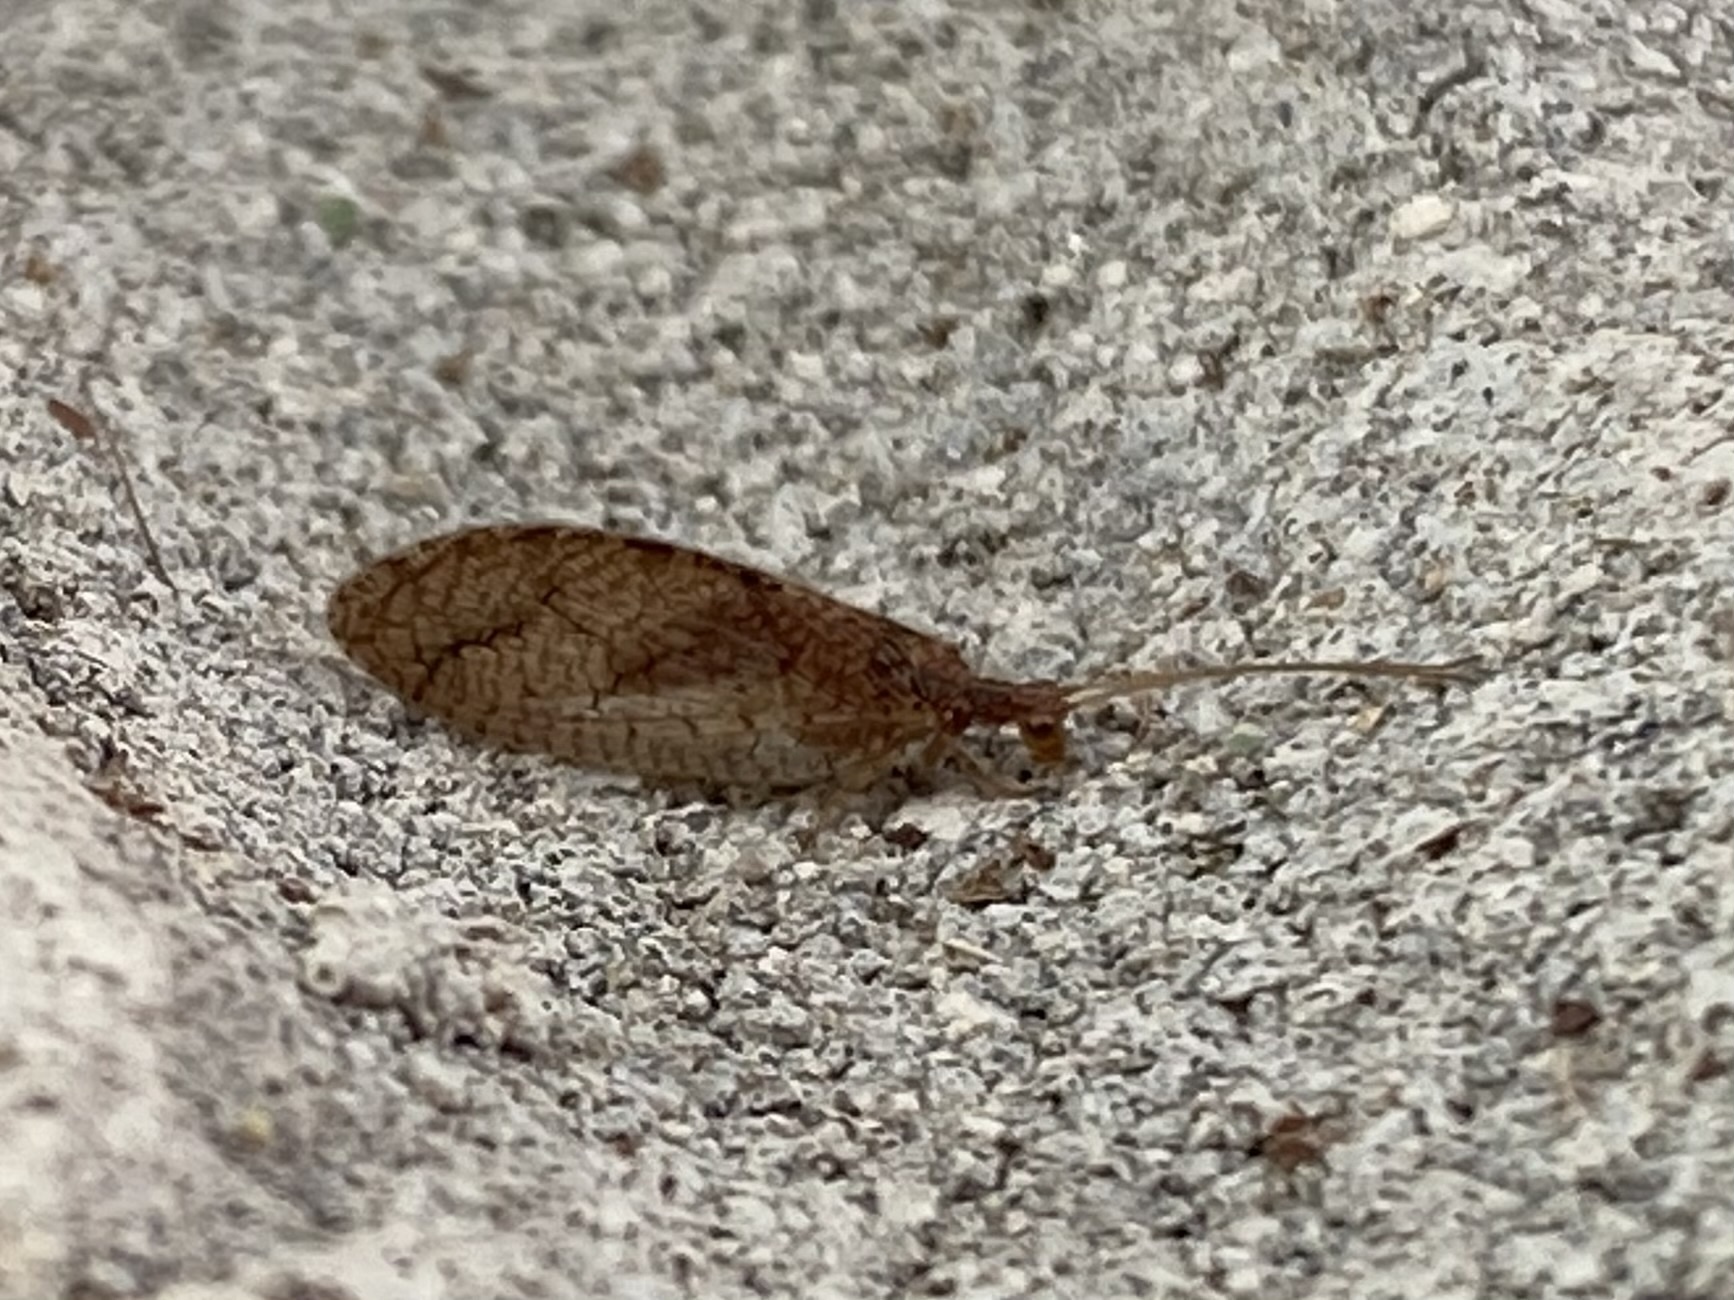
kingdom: Animalia
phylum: Arthropoda
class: Insecta
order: Neuroptera
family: Hemerobiidae
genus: Micromus
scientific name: Micromus posticus
